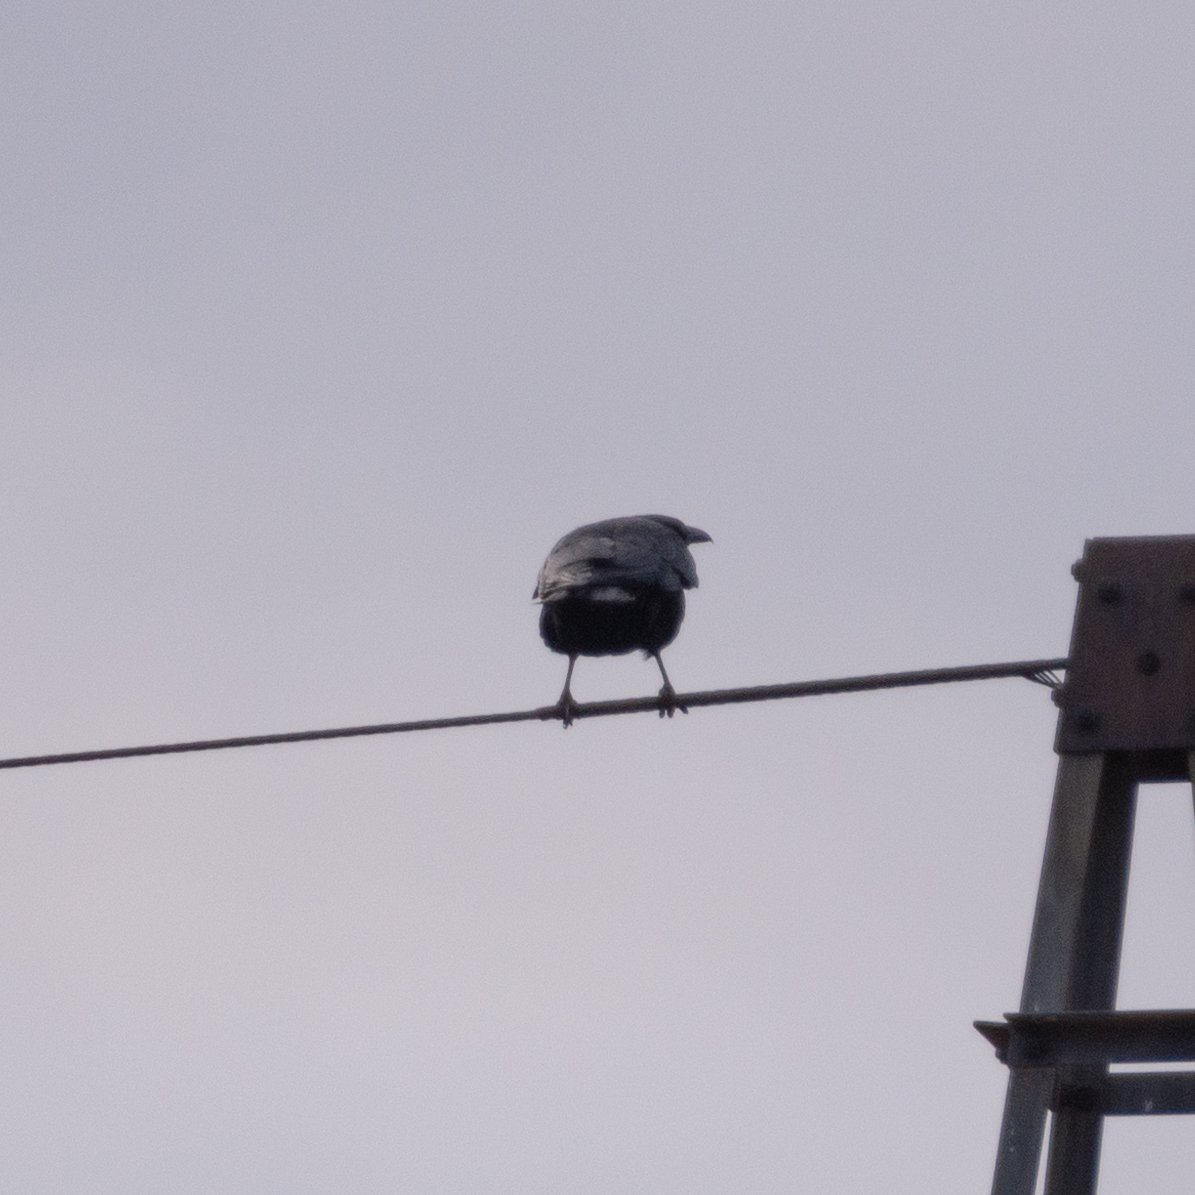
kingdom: Animalia
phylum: Chordata
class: Aves
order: Passeriformes
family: Corvidae
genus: Corvus
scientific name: Corvus corone
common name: Carrion crow
